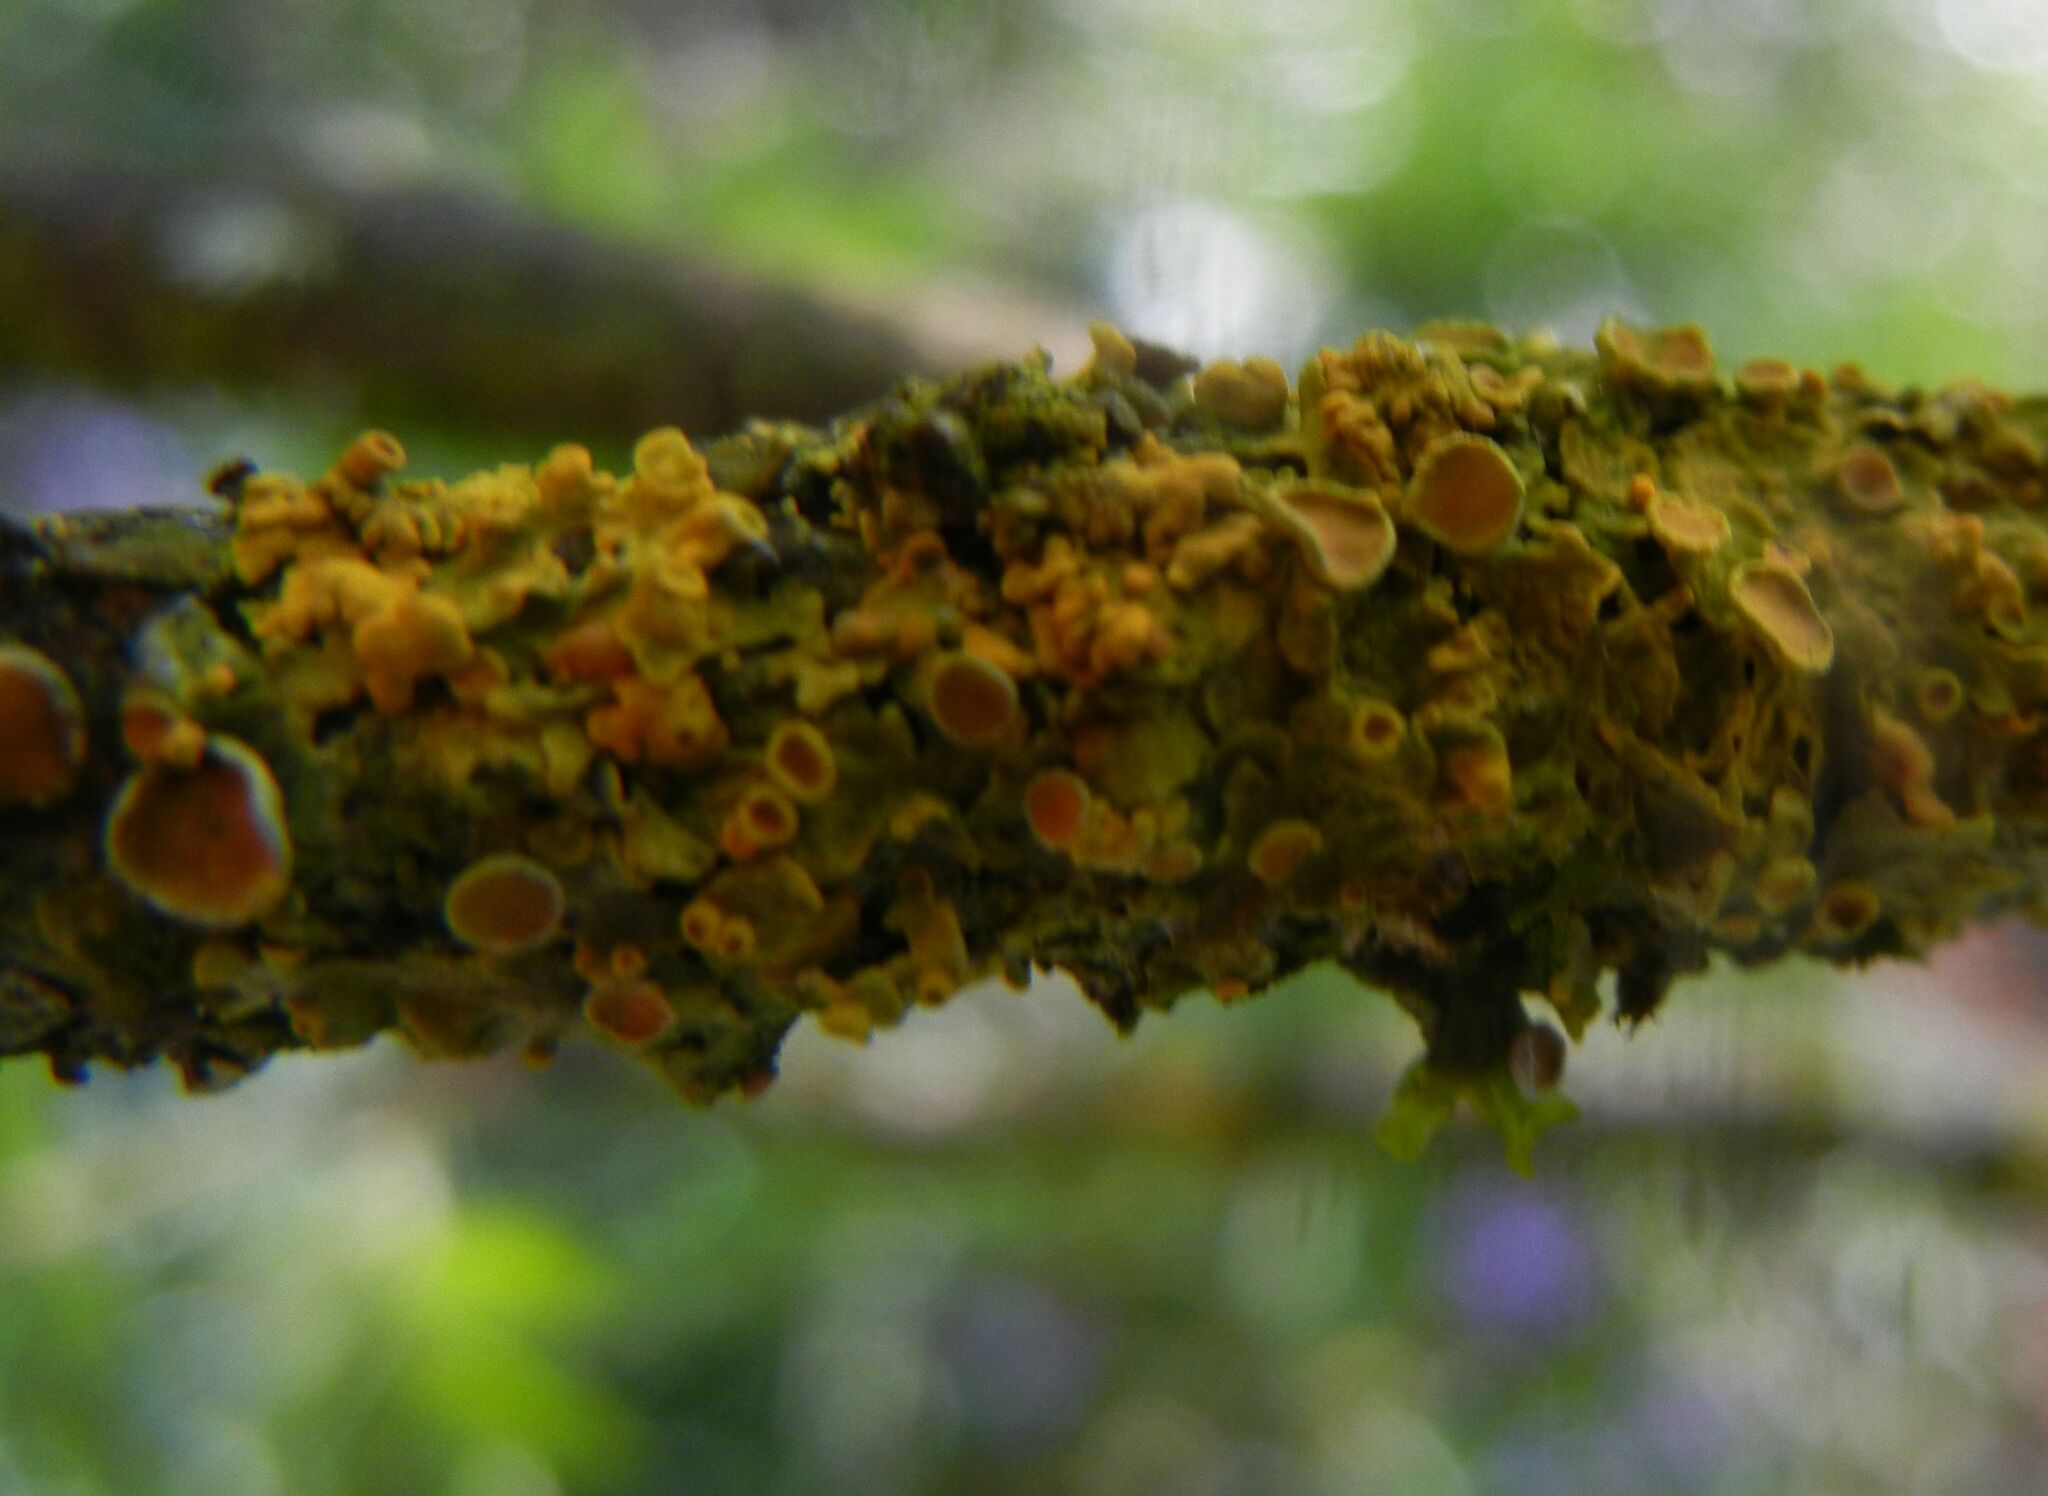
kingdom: Fungi
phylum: Ascomycota
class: Lecanoromycetes
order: Teloschistales
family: Teloschistaceae
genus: Xanthoria
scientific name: Xanthoria parietina
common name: Common orange lichen
